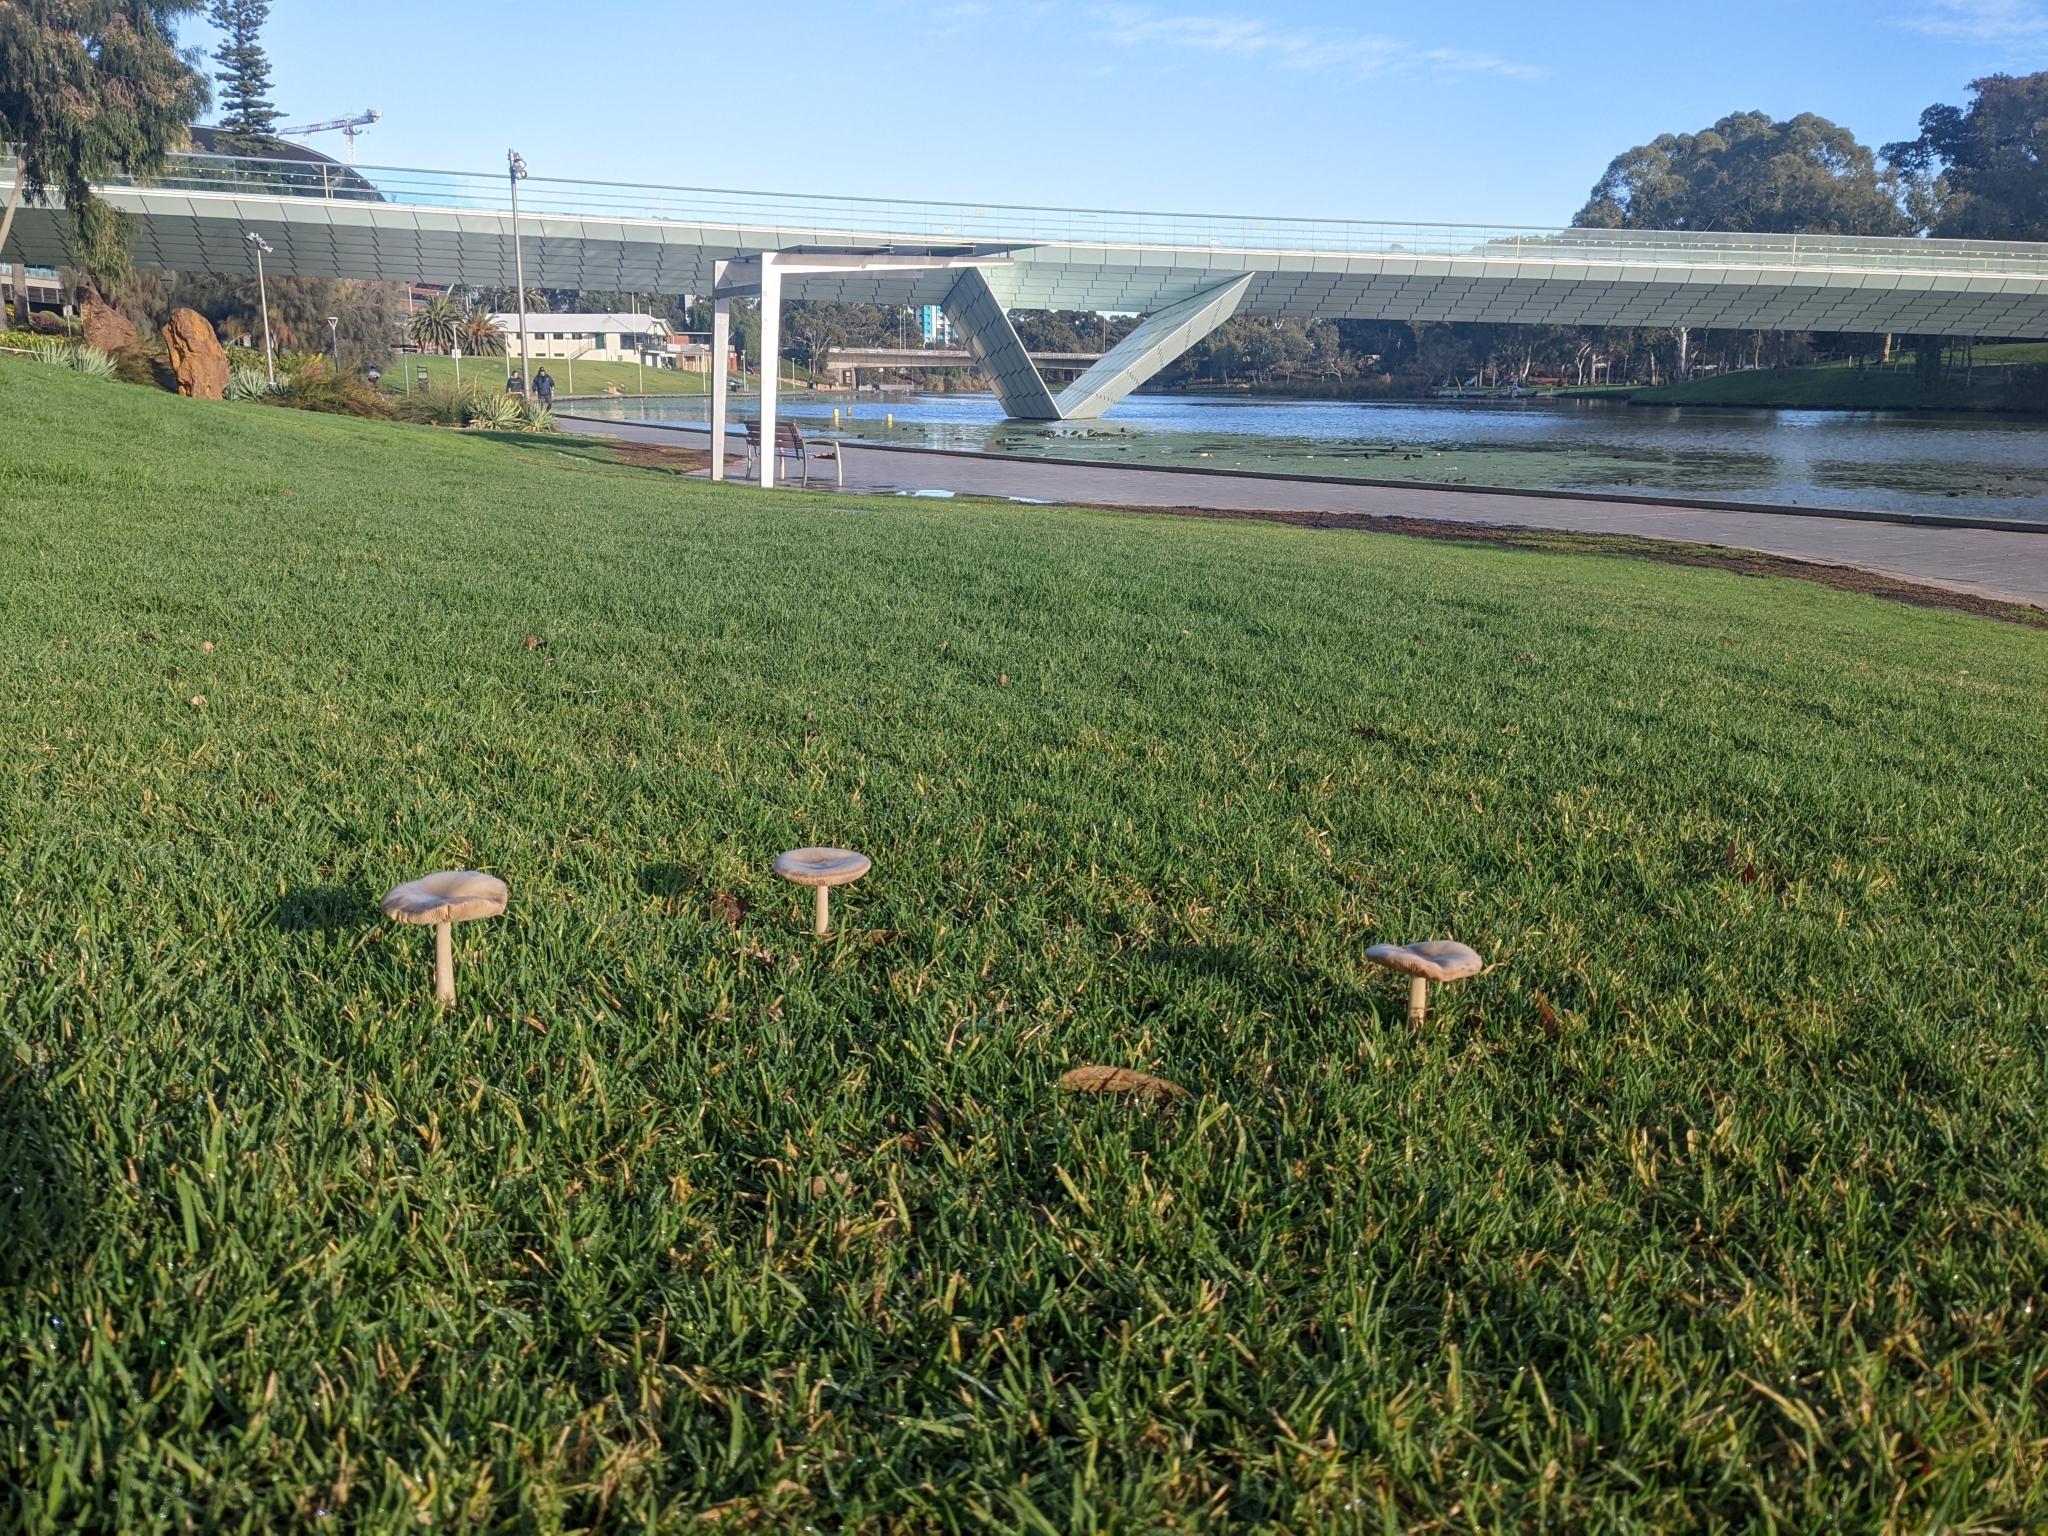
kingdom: Fungi
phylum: Basidiomycota
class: Agaricomycetes
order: Agaricales
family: Pluteaceae
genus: Volvopluteus
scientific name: Volvopluteus gloiocephalus
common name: Stubble rosegill
